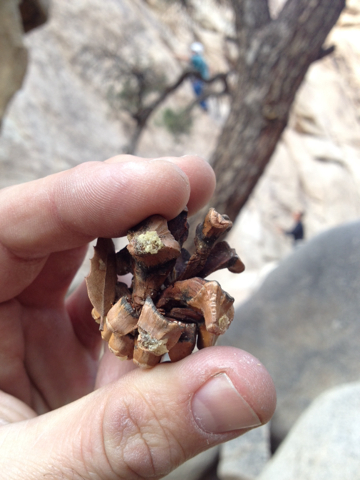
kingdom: Plantae
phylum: Tracheophyta
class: Pinopsida
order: Pinales
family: Pinaceae
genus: Pinus
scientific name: Pinus monophylla
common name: One-leaved nut pine
